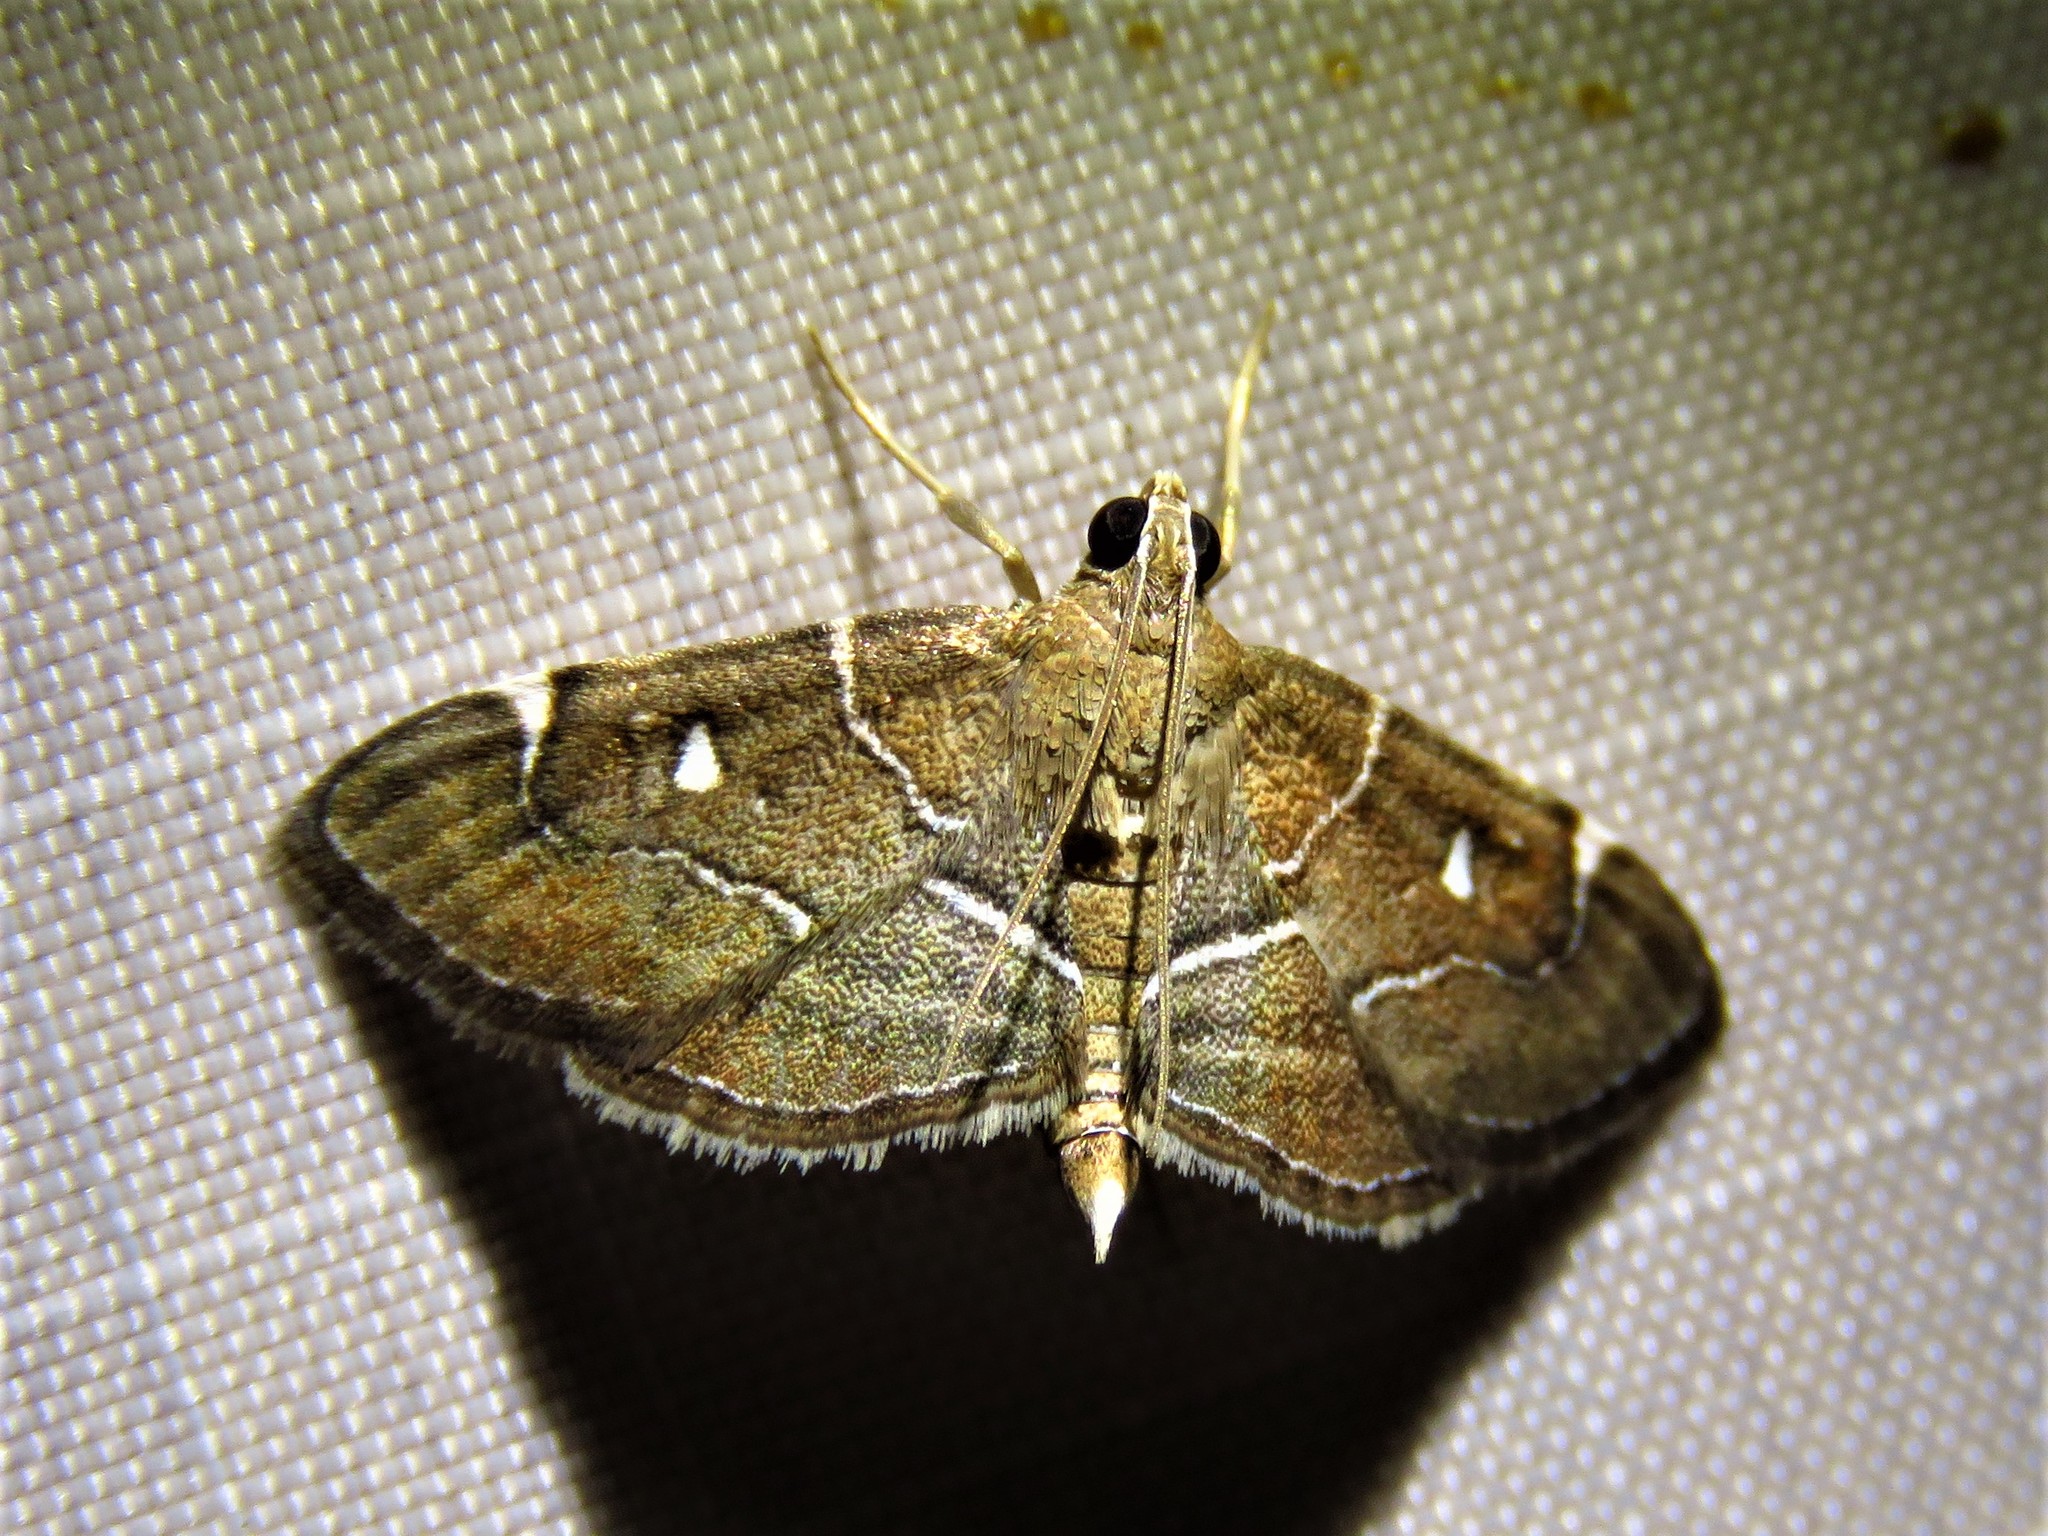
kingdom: Animalia
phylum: Arthropoda
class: Insecta
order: Lepidoptera
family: Crambidae
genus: Lamprosema
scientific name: Lamprosema victoriae
